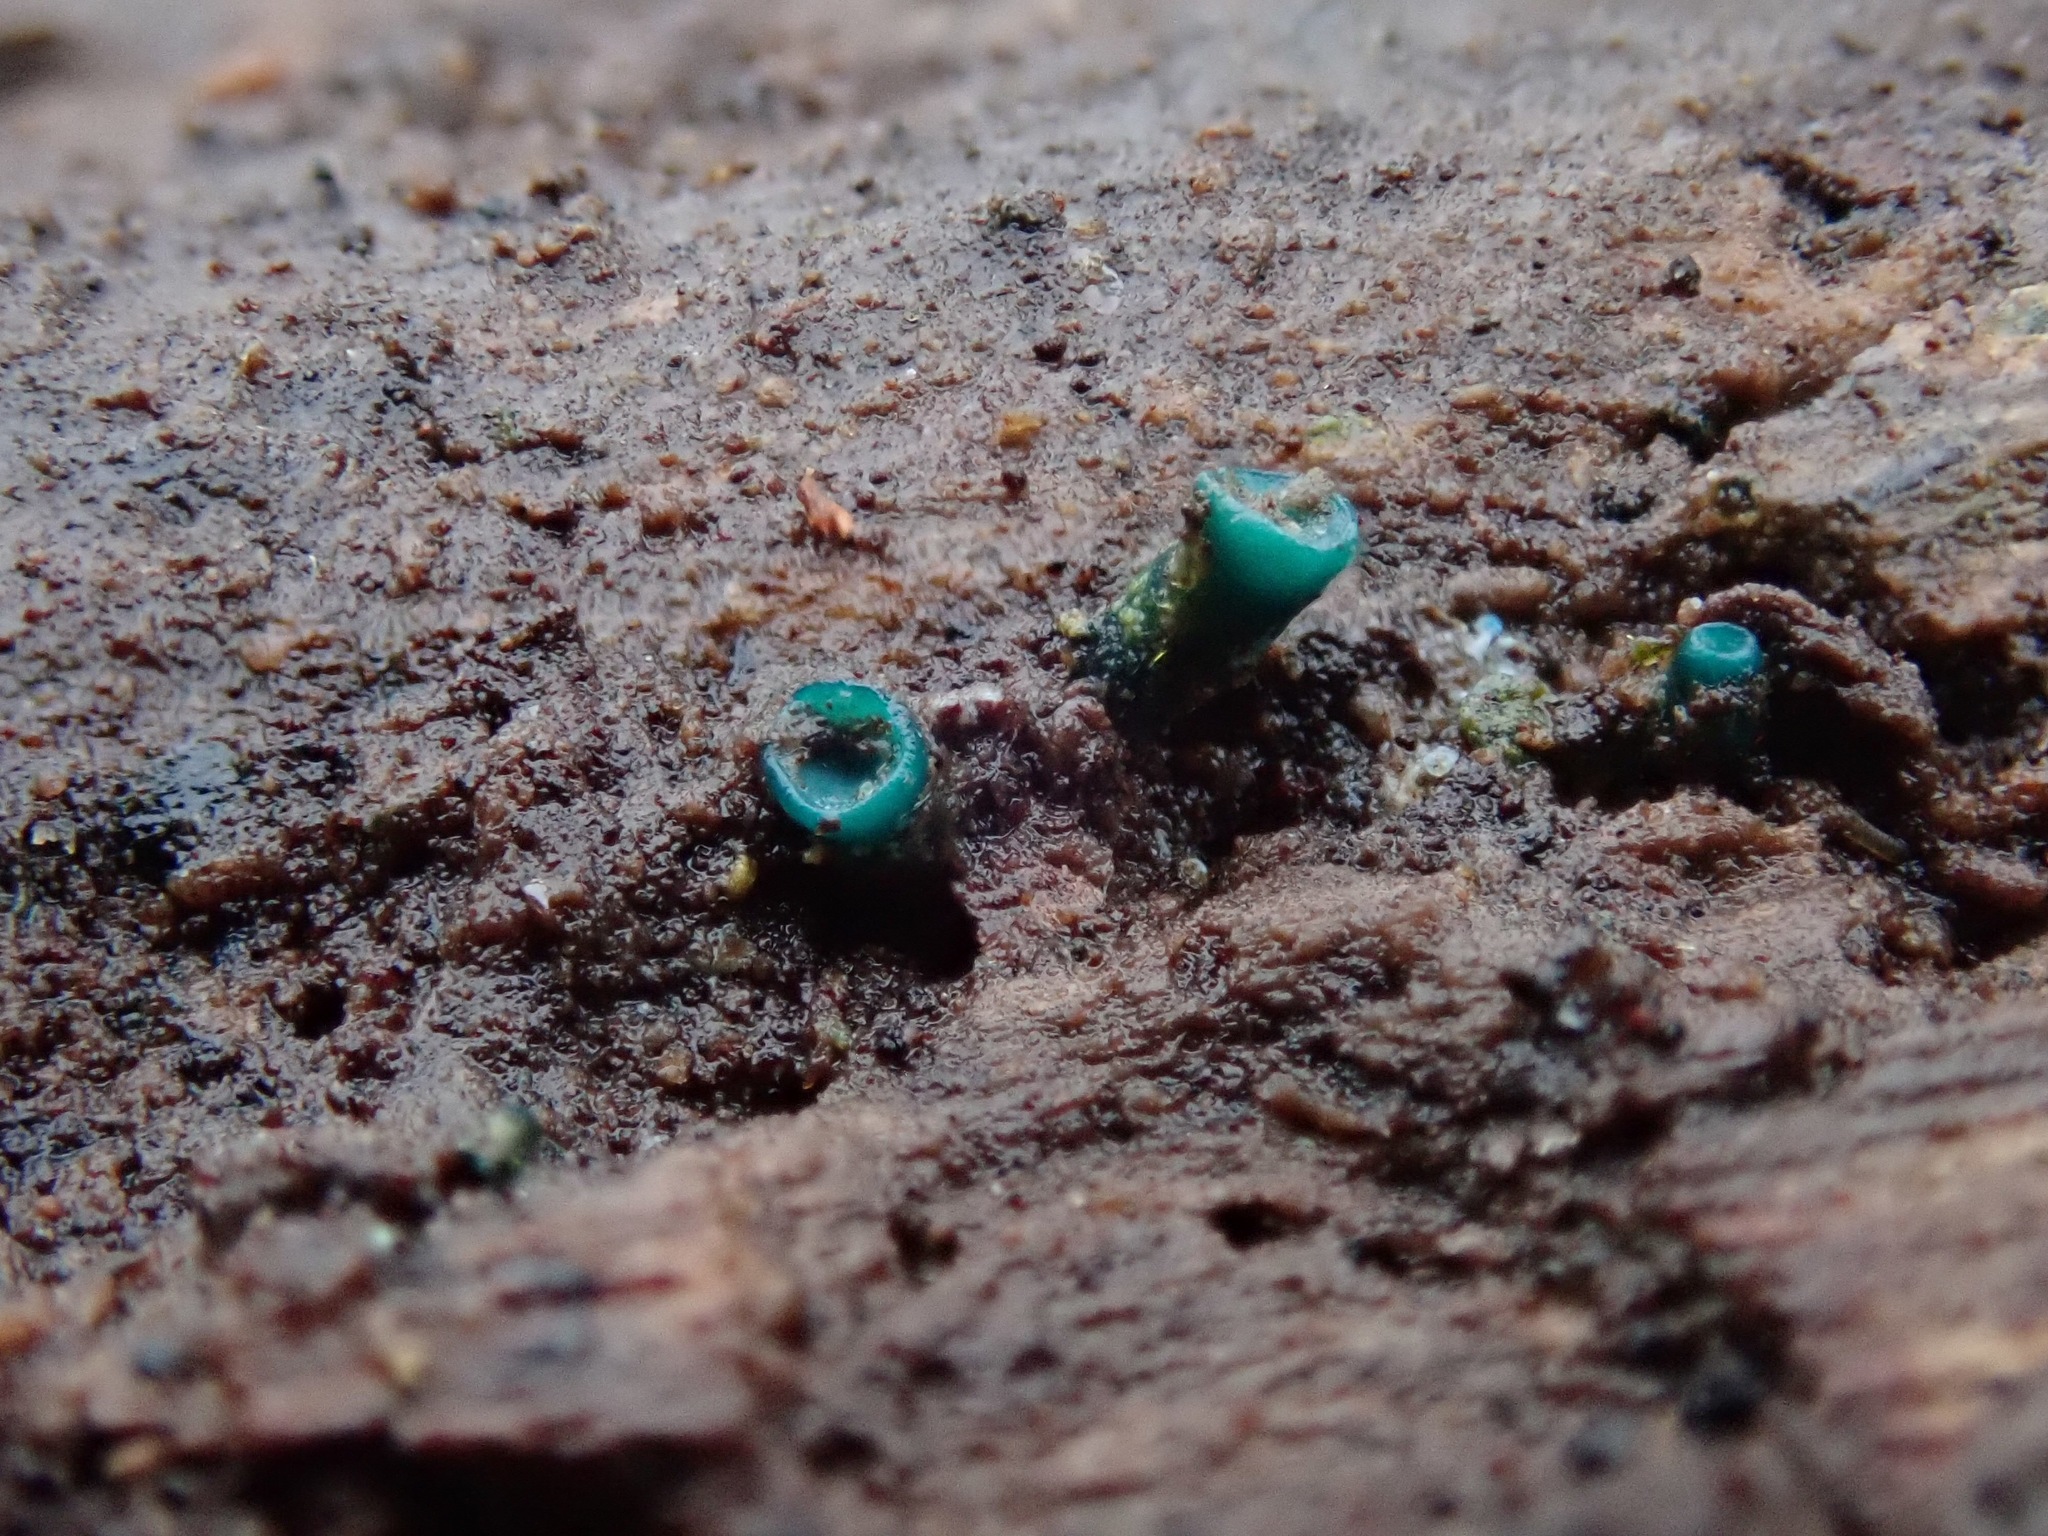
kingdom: Fungi
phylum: Ascomycota
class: Leotiomycetes
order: Helotiales
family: Chlorociboriaceae
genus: Chlorociboria
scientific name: Chlorociboria aeruginascens
